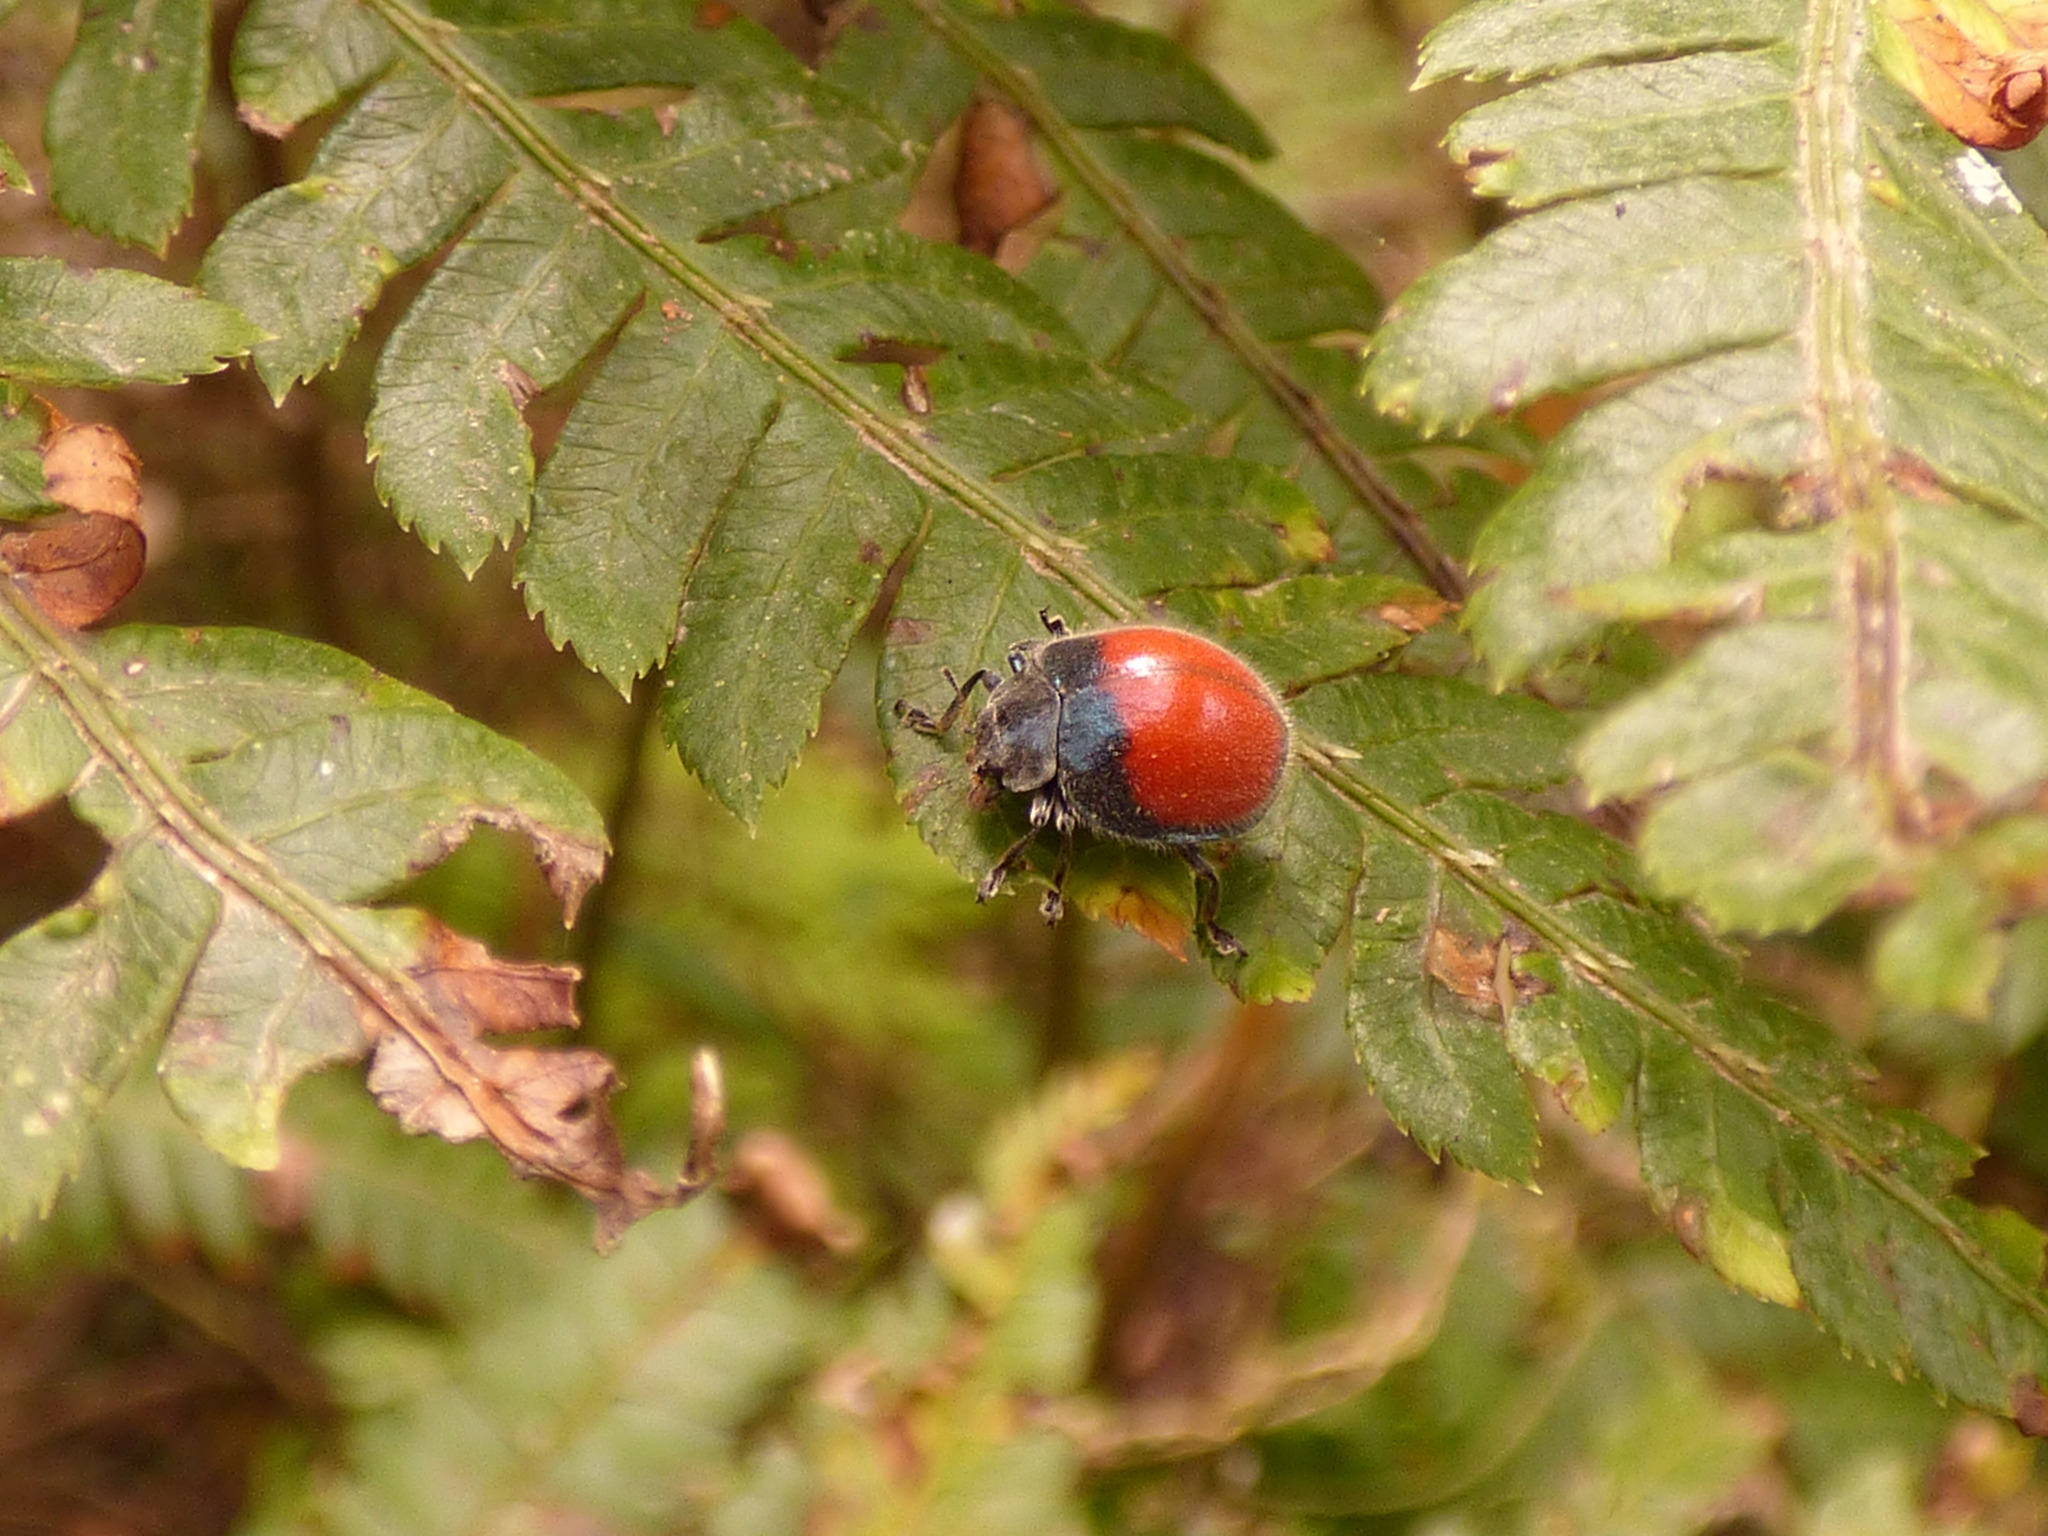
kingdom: Animalia
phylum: Arthropoda
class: Insecta
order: Coleoptera
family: Coccinellidae
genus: Toxotoma
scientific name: Toxotoma
